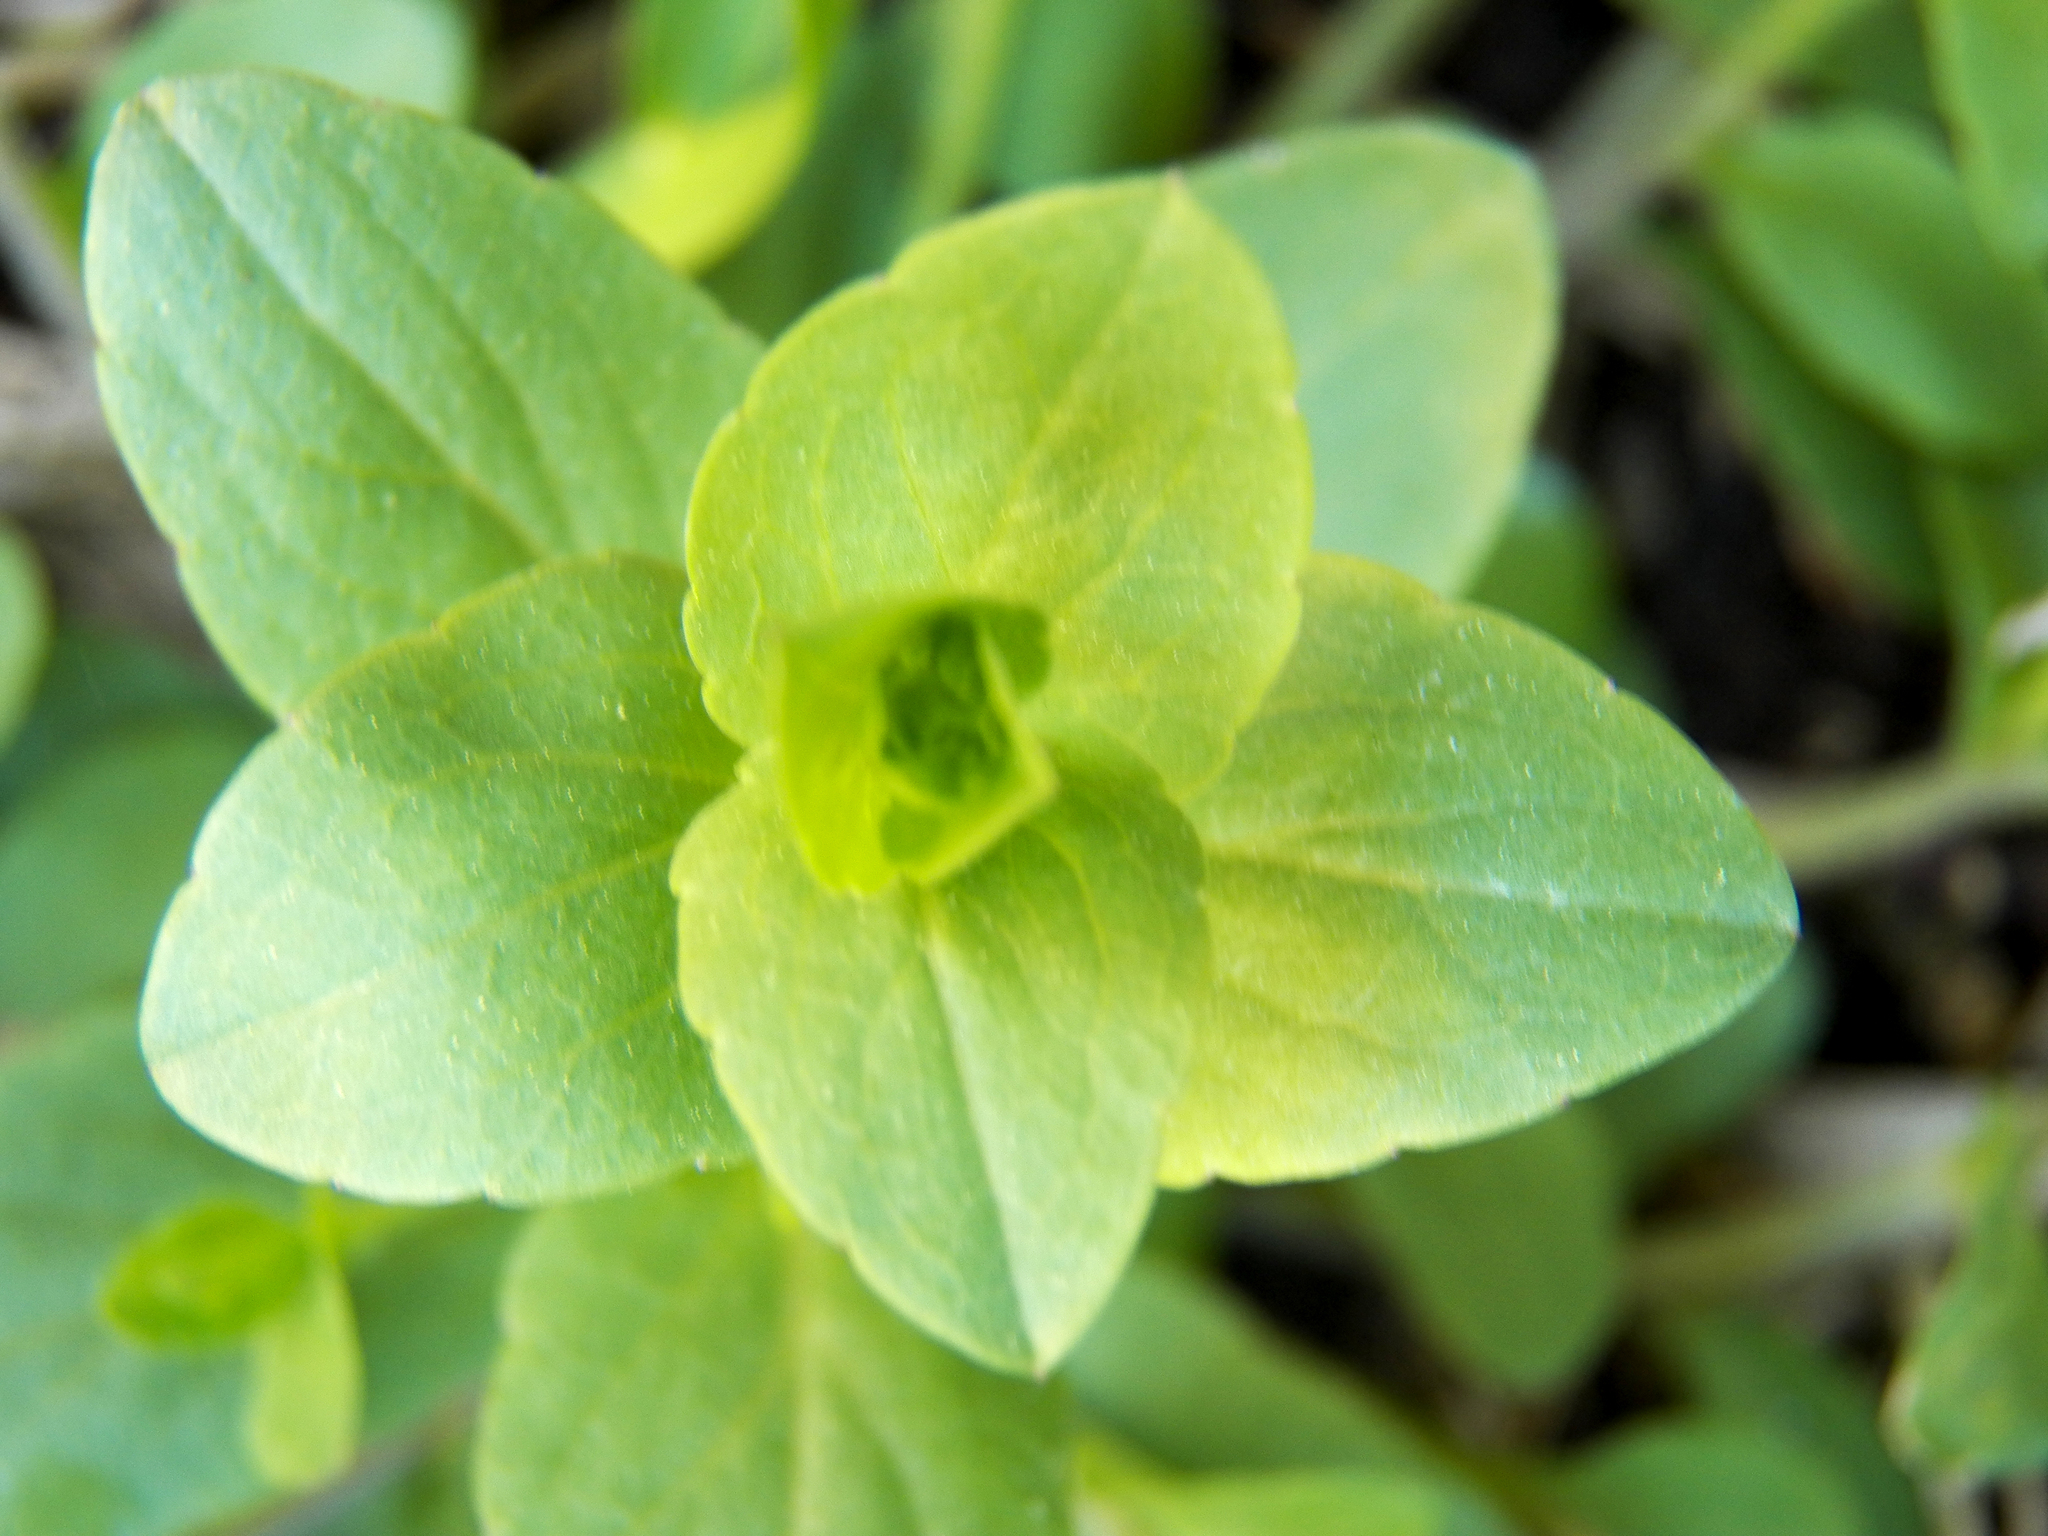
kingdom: Plantae
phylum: Tracheophyta
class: Magnoliopsida
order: Lamiales
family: Lamiaceae
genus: Clinopodium
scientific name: Clinopodium brownei
